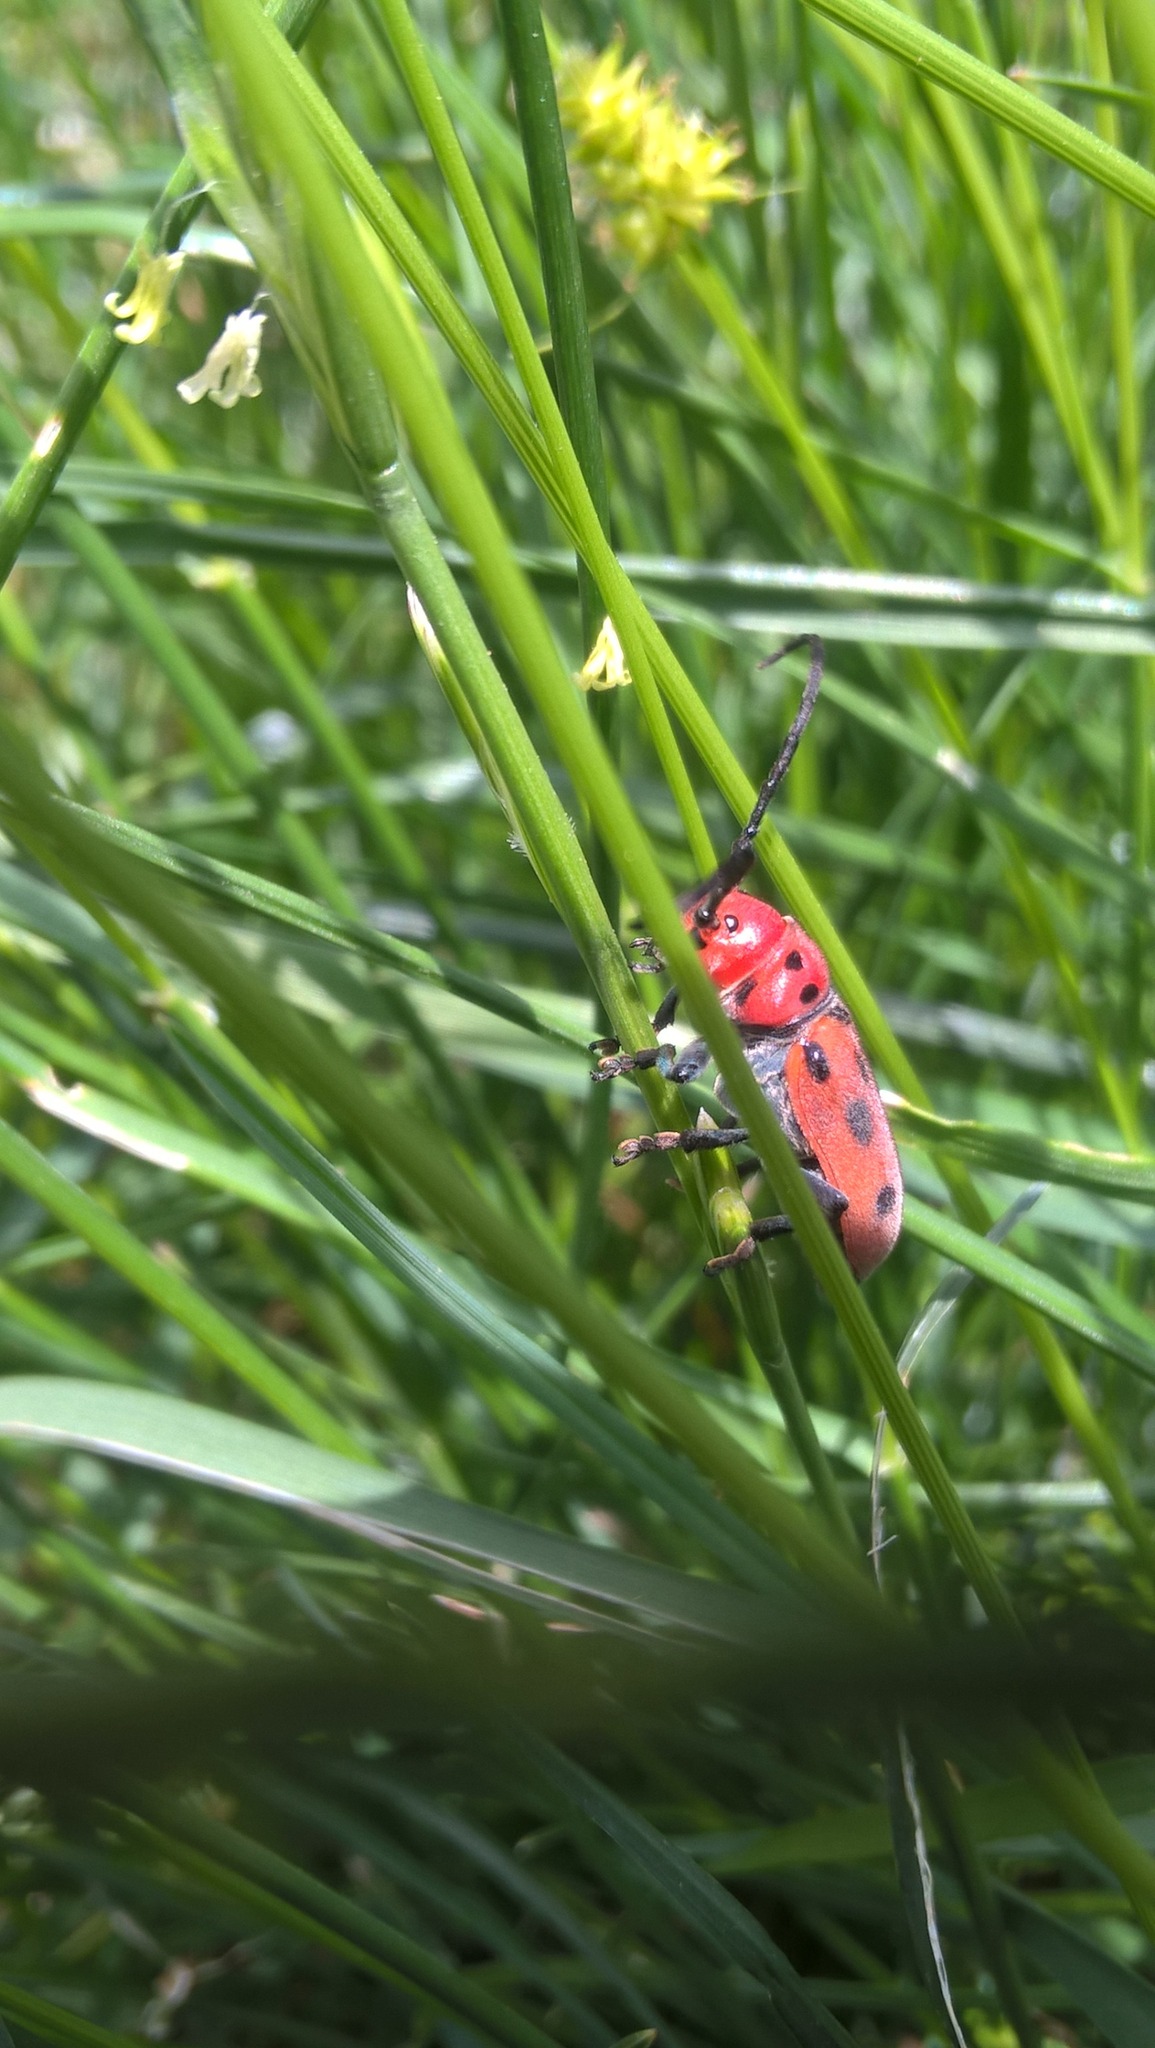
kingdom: Animalia
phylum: Arthropoda
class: Insecta
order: Coleoptera
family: Cerambycidae
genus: Tetraopes
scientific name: Tetraopes tetrophthalmus
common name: Red milkweed beetle
